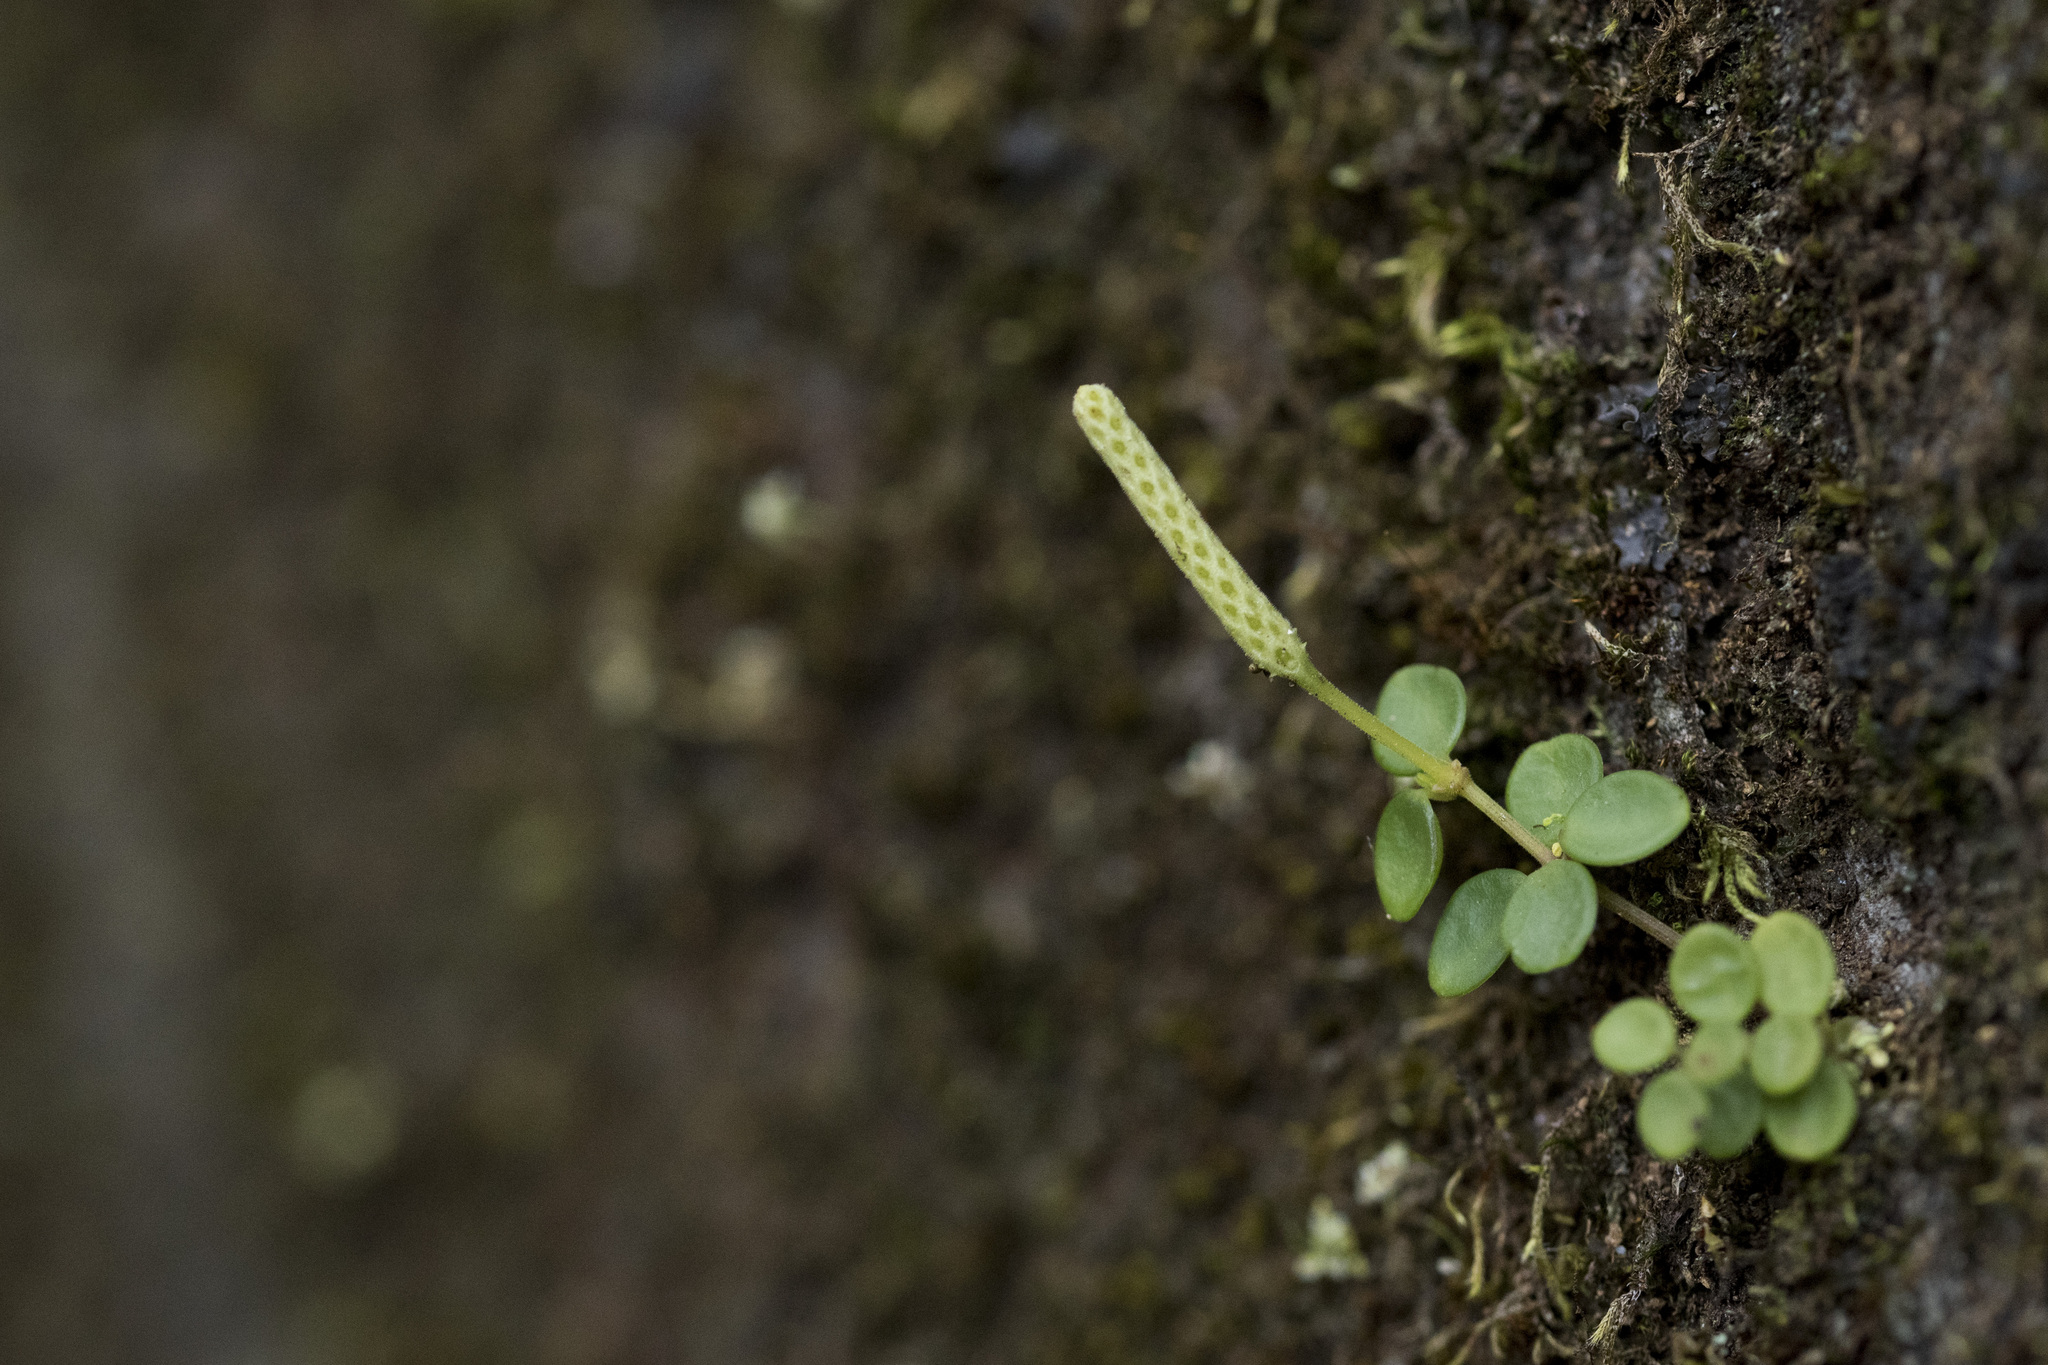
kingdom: Plantae
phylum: Tracheophyta
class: Magnoliopsida
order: Piperales
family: Piperaceae
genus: Peperomia
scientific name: Peperomia tetraphylla
